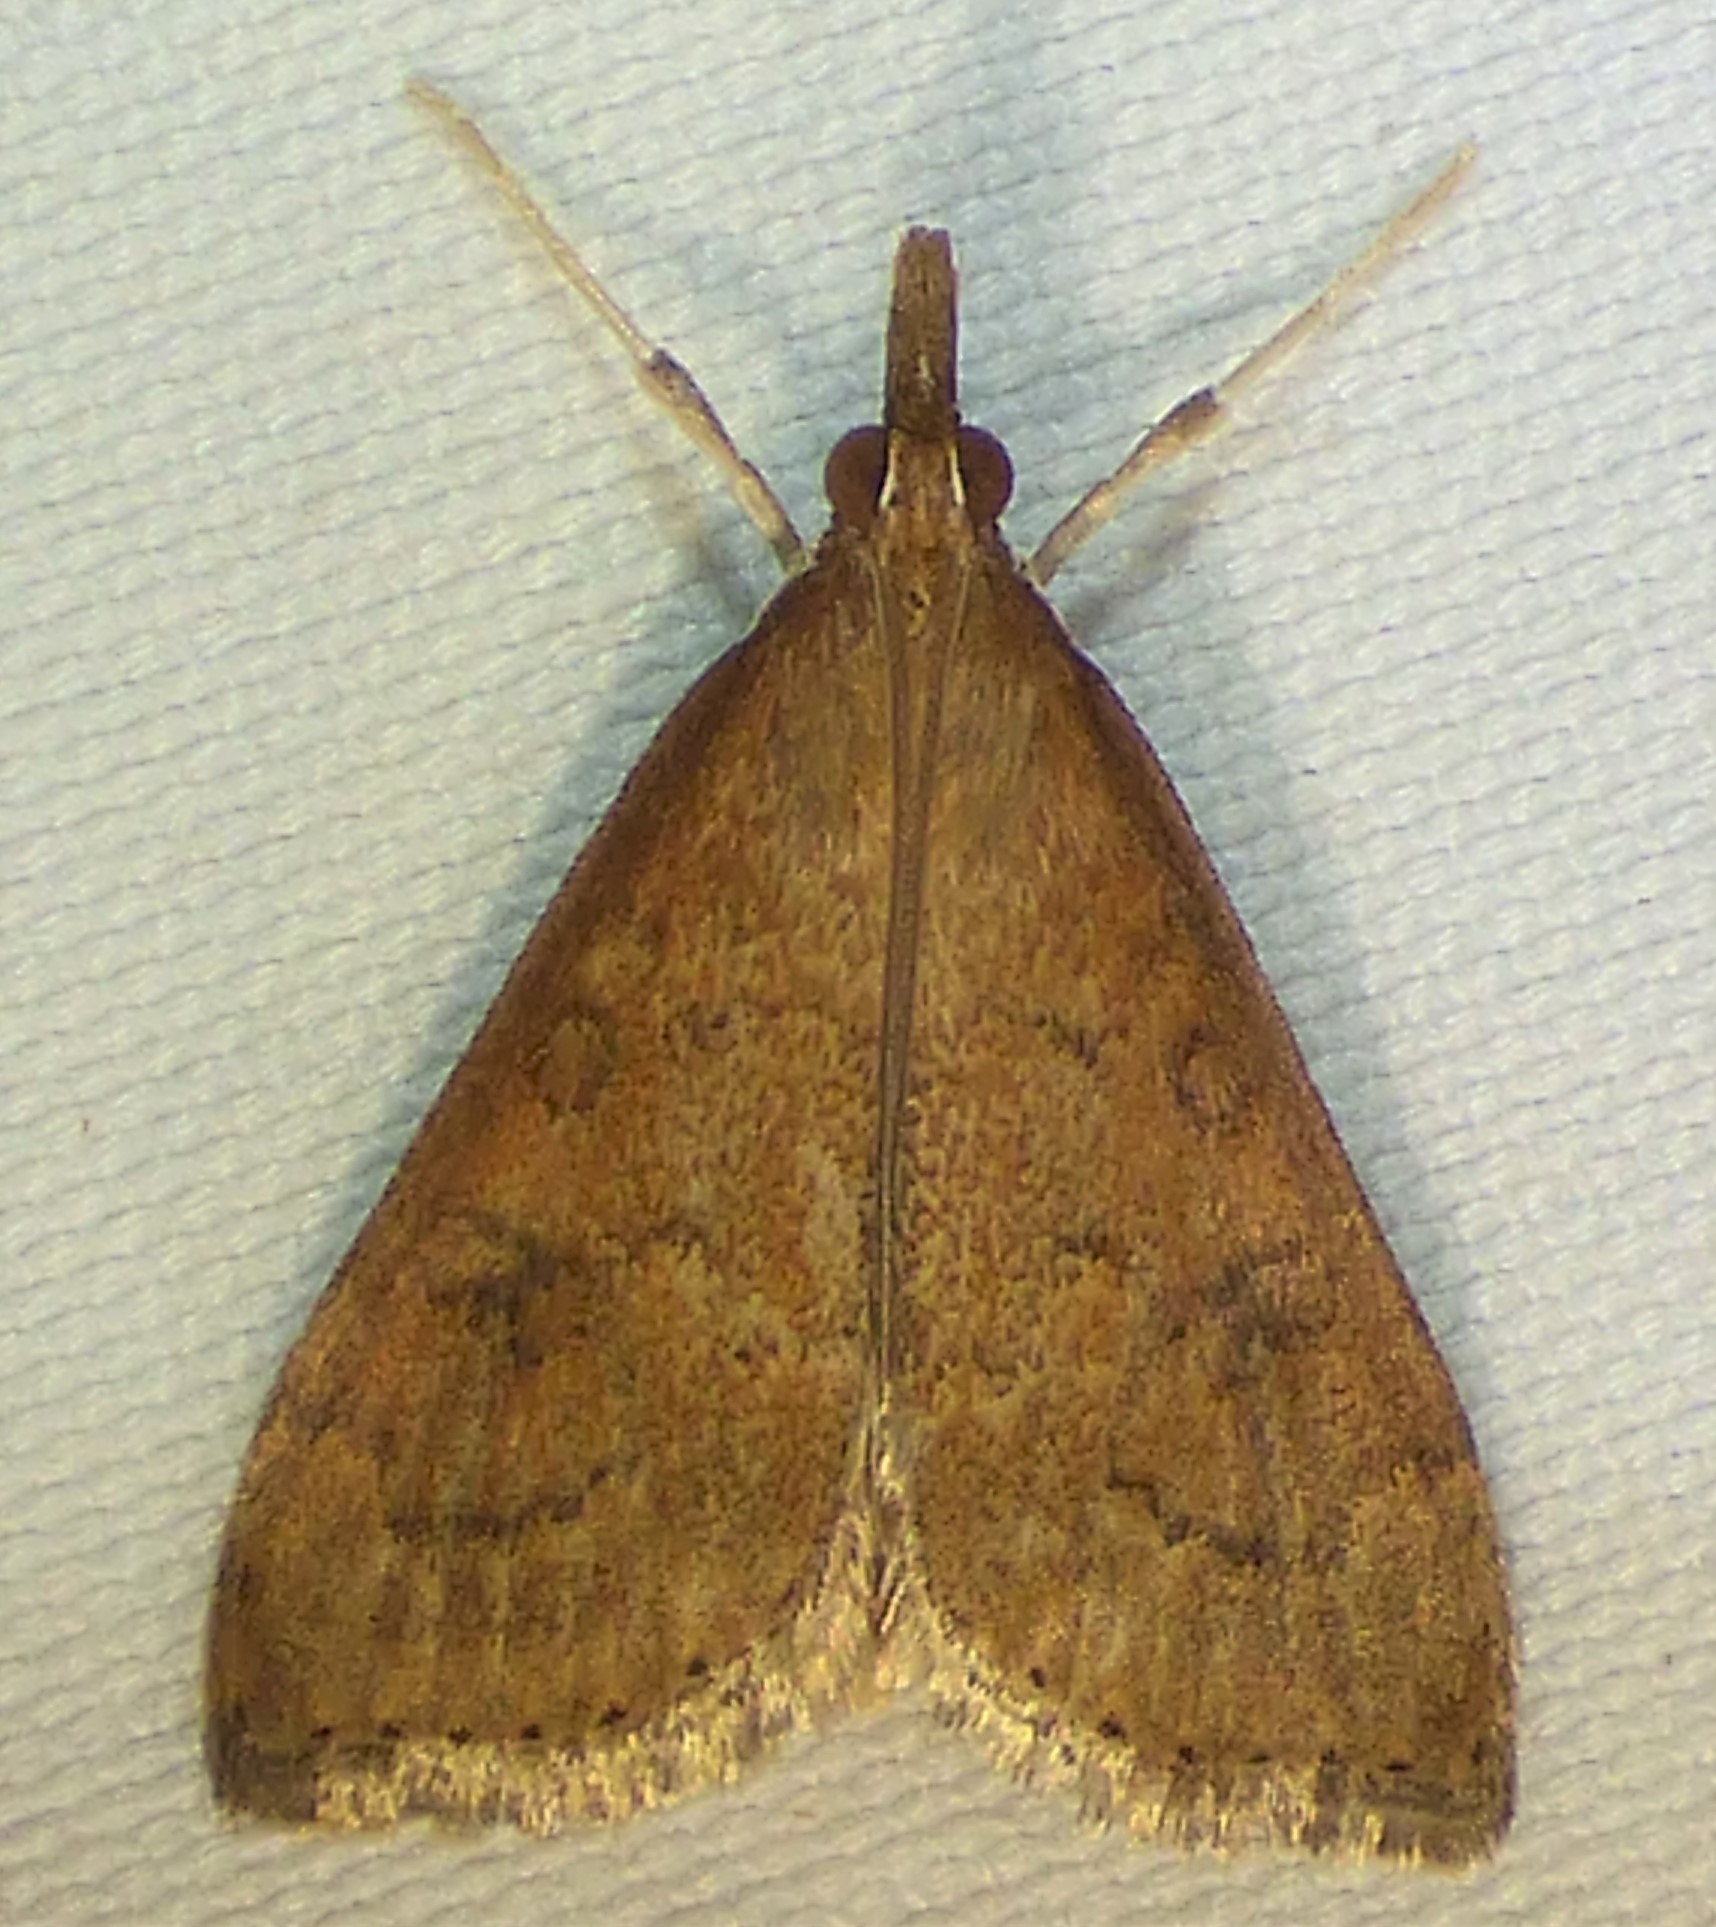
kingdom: Animalia
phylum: Arthropoda
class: Insecta
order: Lepidoptera
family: Crambidae
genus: Udea
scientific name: Udea rubigalis
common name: Celery leaftier moth
